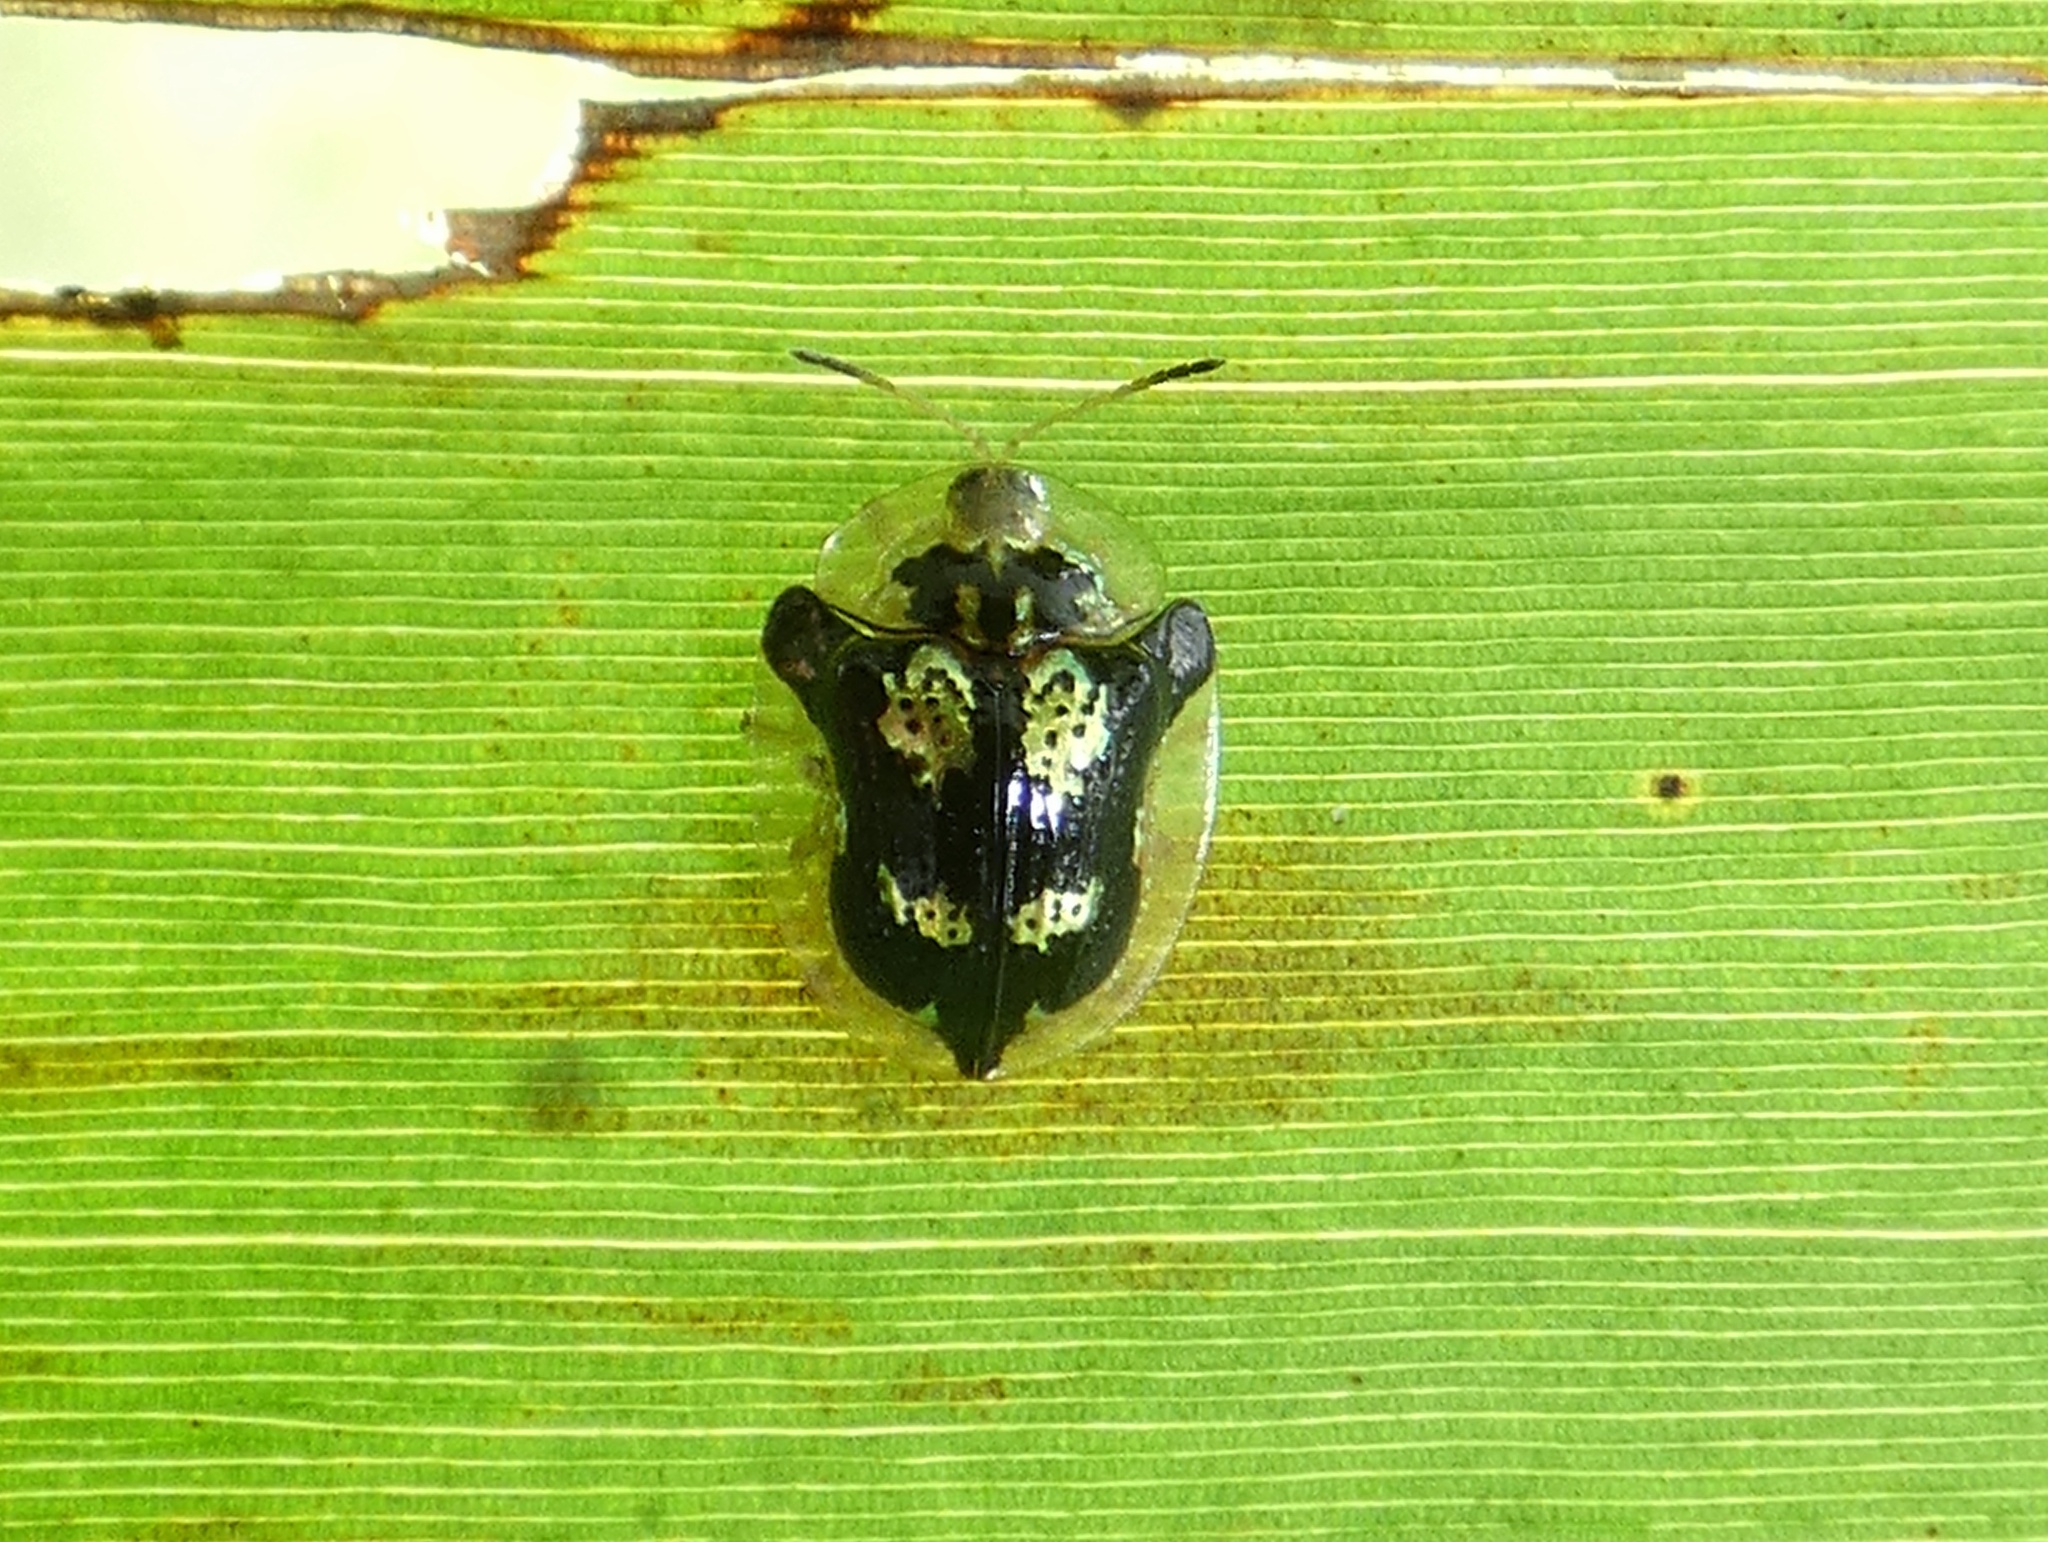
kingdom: Animalia
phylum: Arthropoda
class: Insecta
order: Coleoptera
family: Chrysomelidae
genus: Deloyala
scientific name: Deloyala fuliginosa
